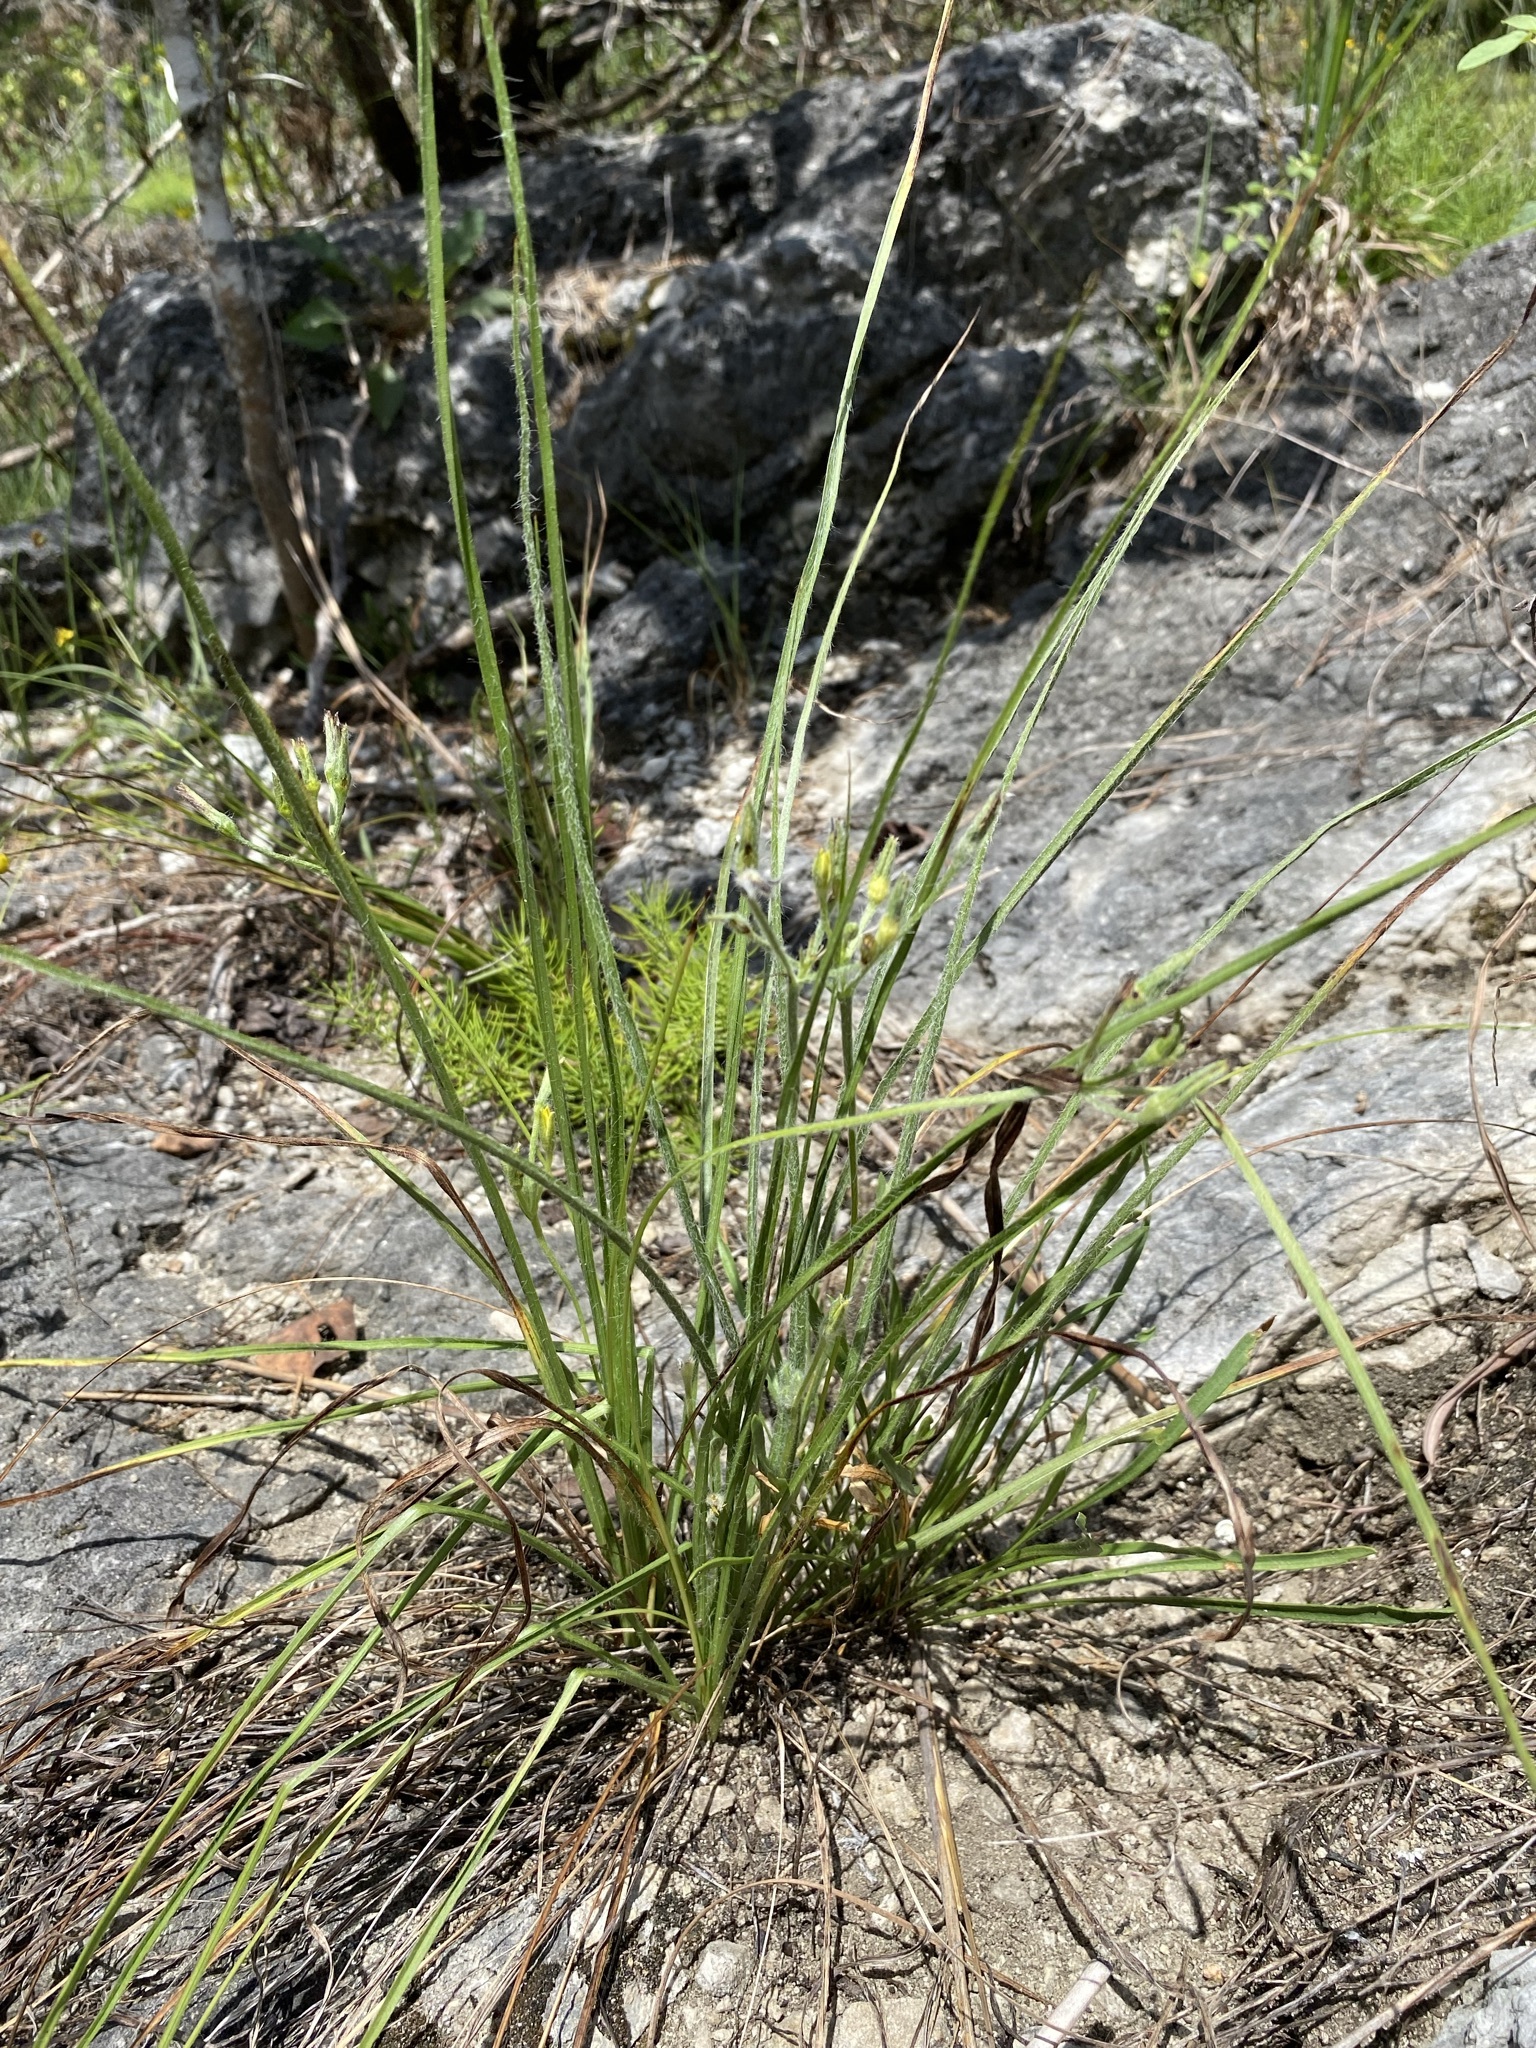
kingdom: Plantae
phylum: Tracheophyta
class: Liliopsida
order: Asparagales
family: Hypoxidaceae
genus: Hypoxis
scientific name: Hypoxis hirsuta
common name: Common goldstar
